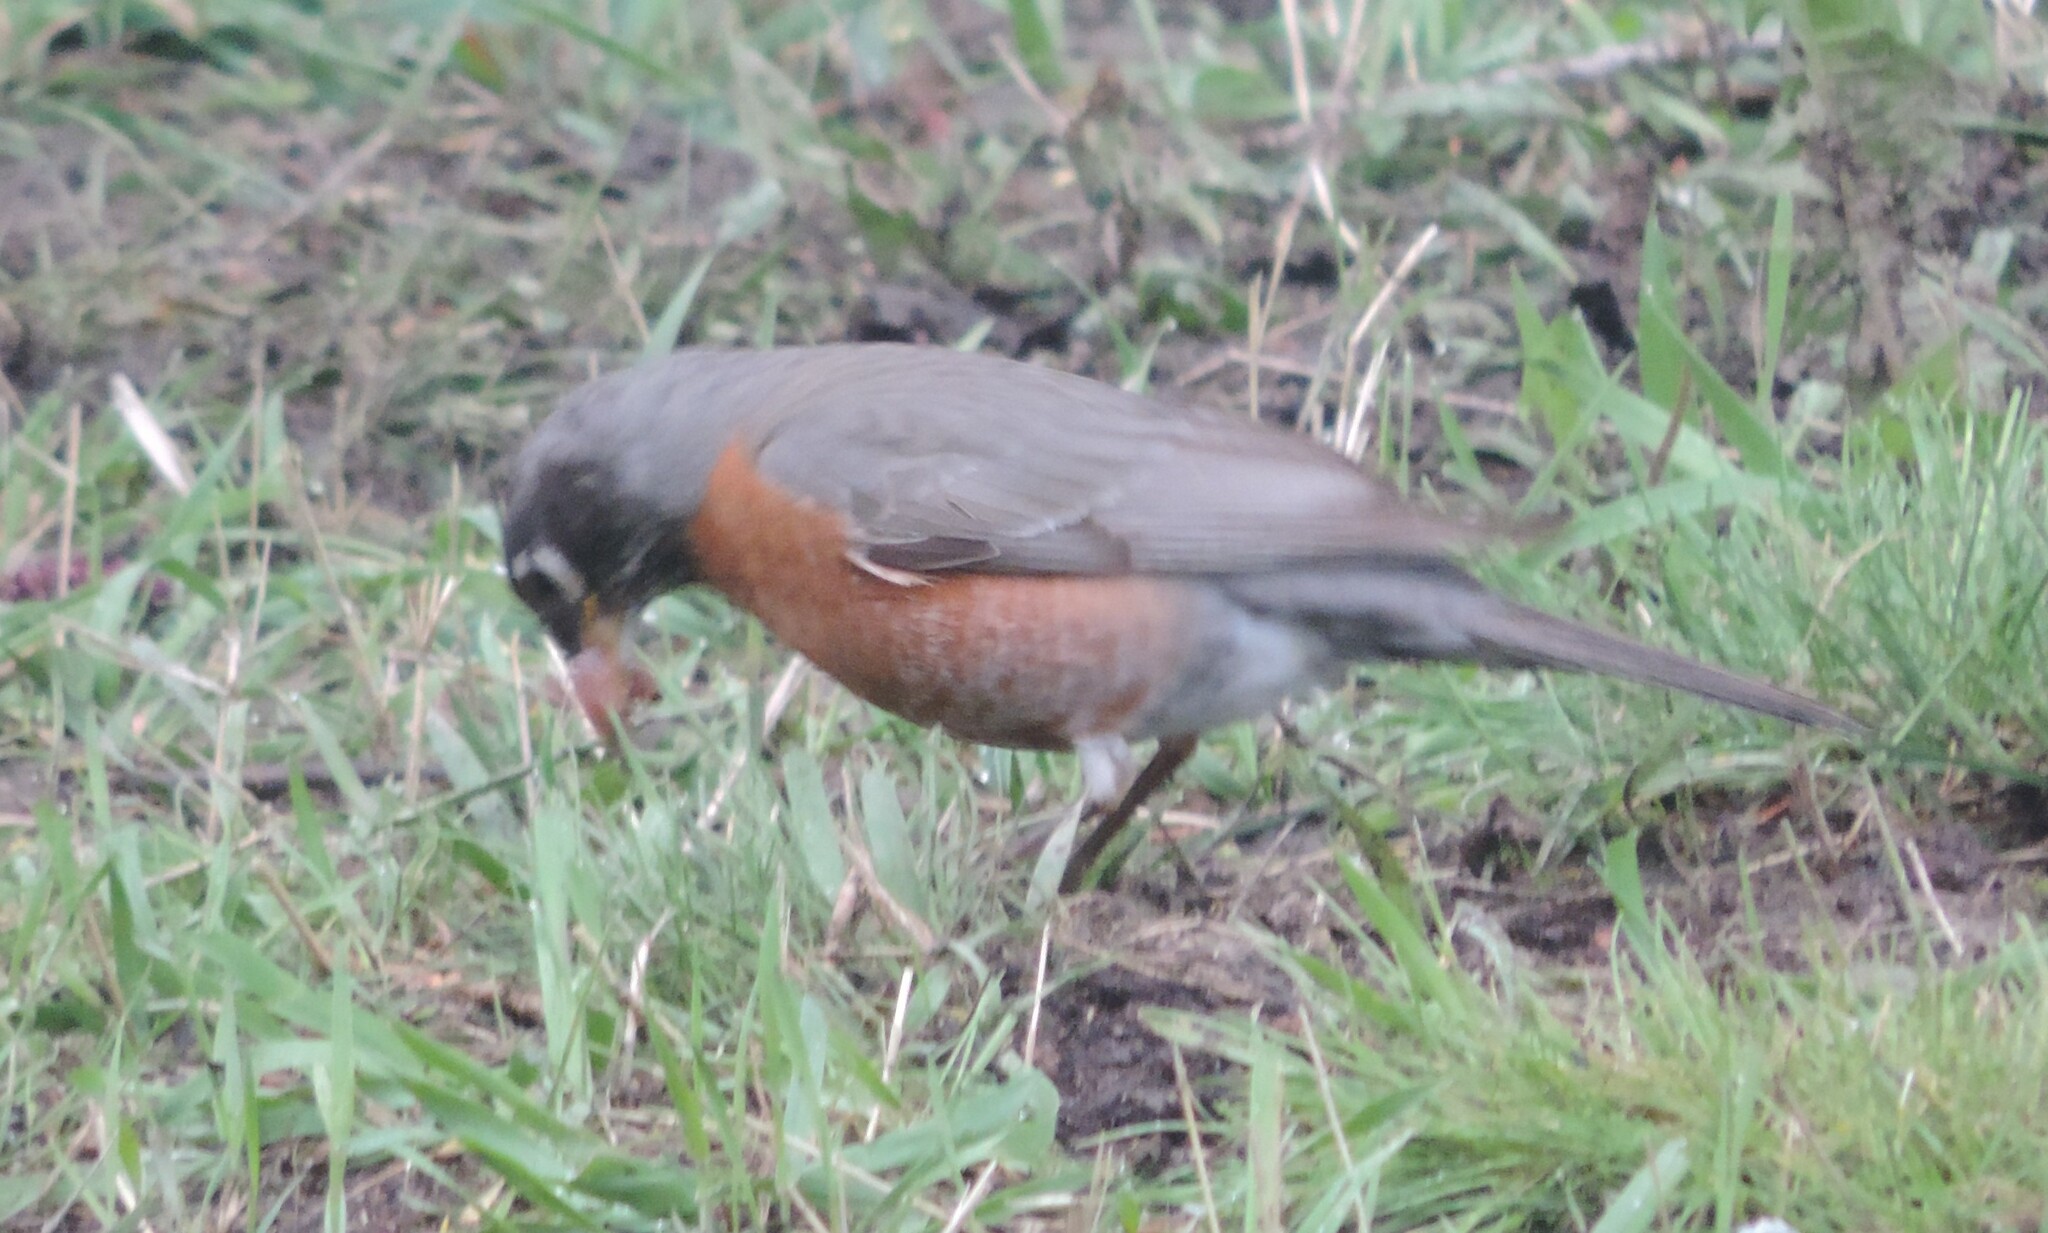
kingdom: Animalia
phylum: Chordata
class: Aves
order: Passeriformes
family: Turdidae
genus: Turdus
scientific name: Turdus migratorius
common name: American robin
